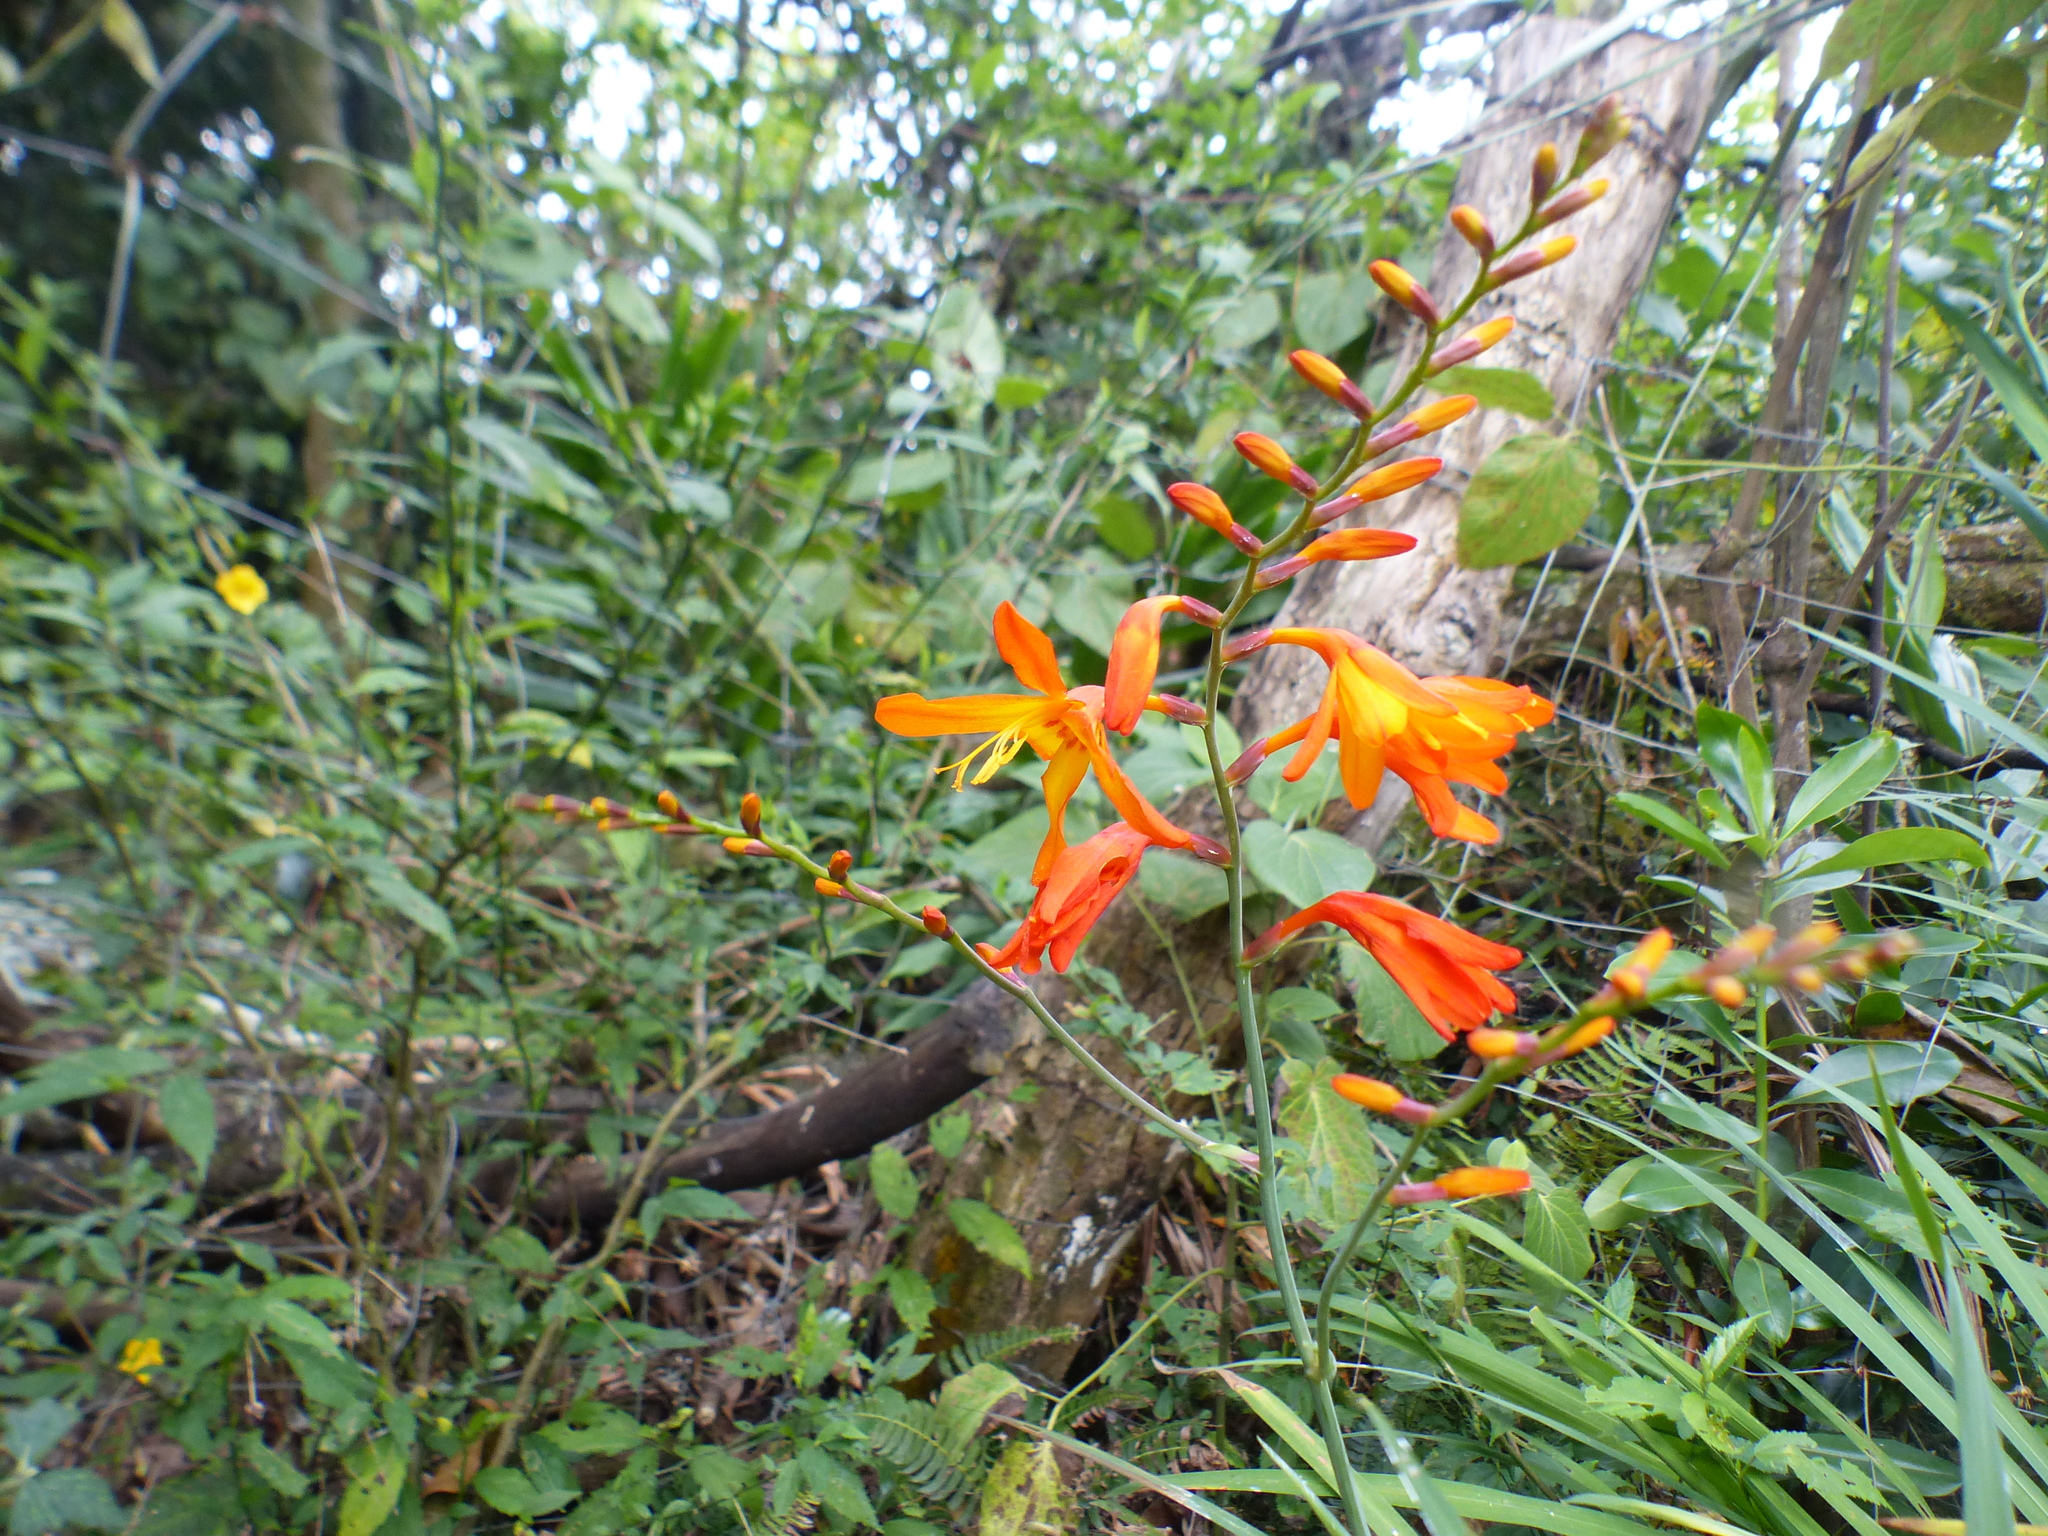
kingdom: Plantae
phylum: Tracheophyta
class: Liliopsida
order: Asparagales
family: Iridaceae
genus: Crocosmia
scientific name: Crocosmia crocosmiiflora
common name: Montbretia
